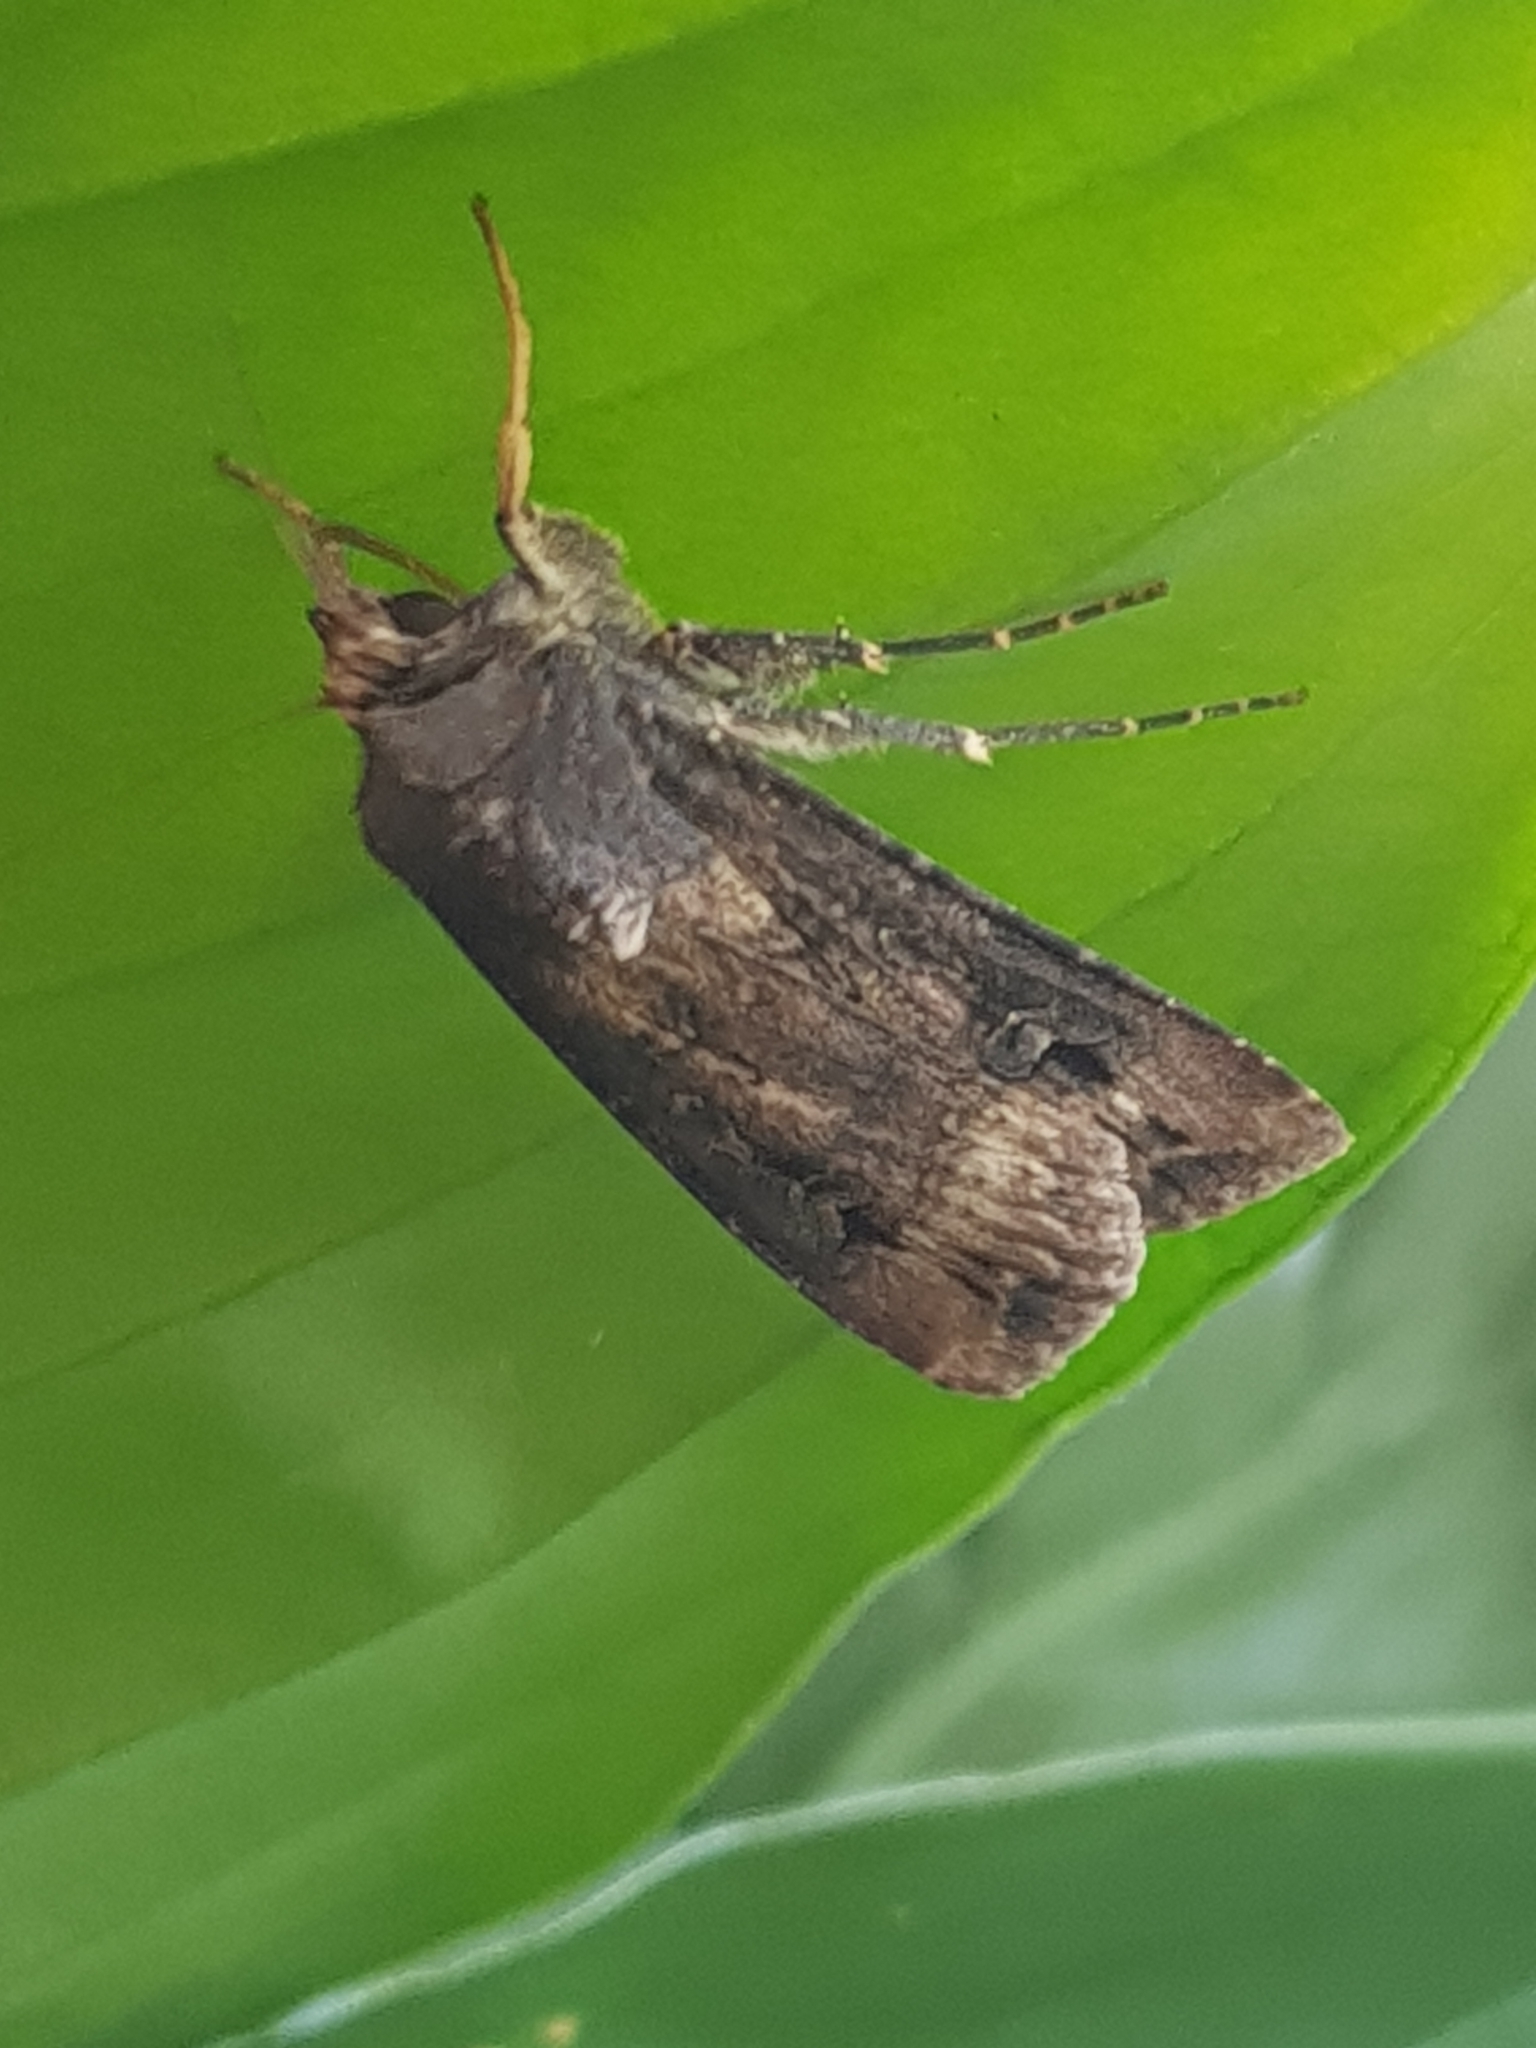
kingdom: Animalia
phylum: Arthropoda
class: Insecta
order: Lepidoptera
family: Noctuidae
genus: Agrotis
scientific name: Agrotis ipsilon
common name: Dark sword-grass
